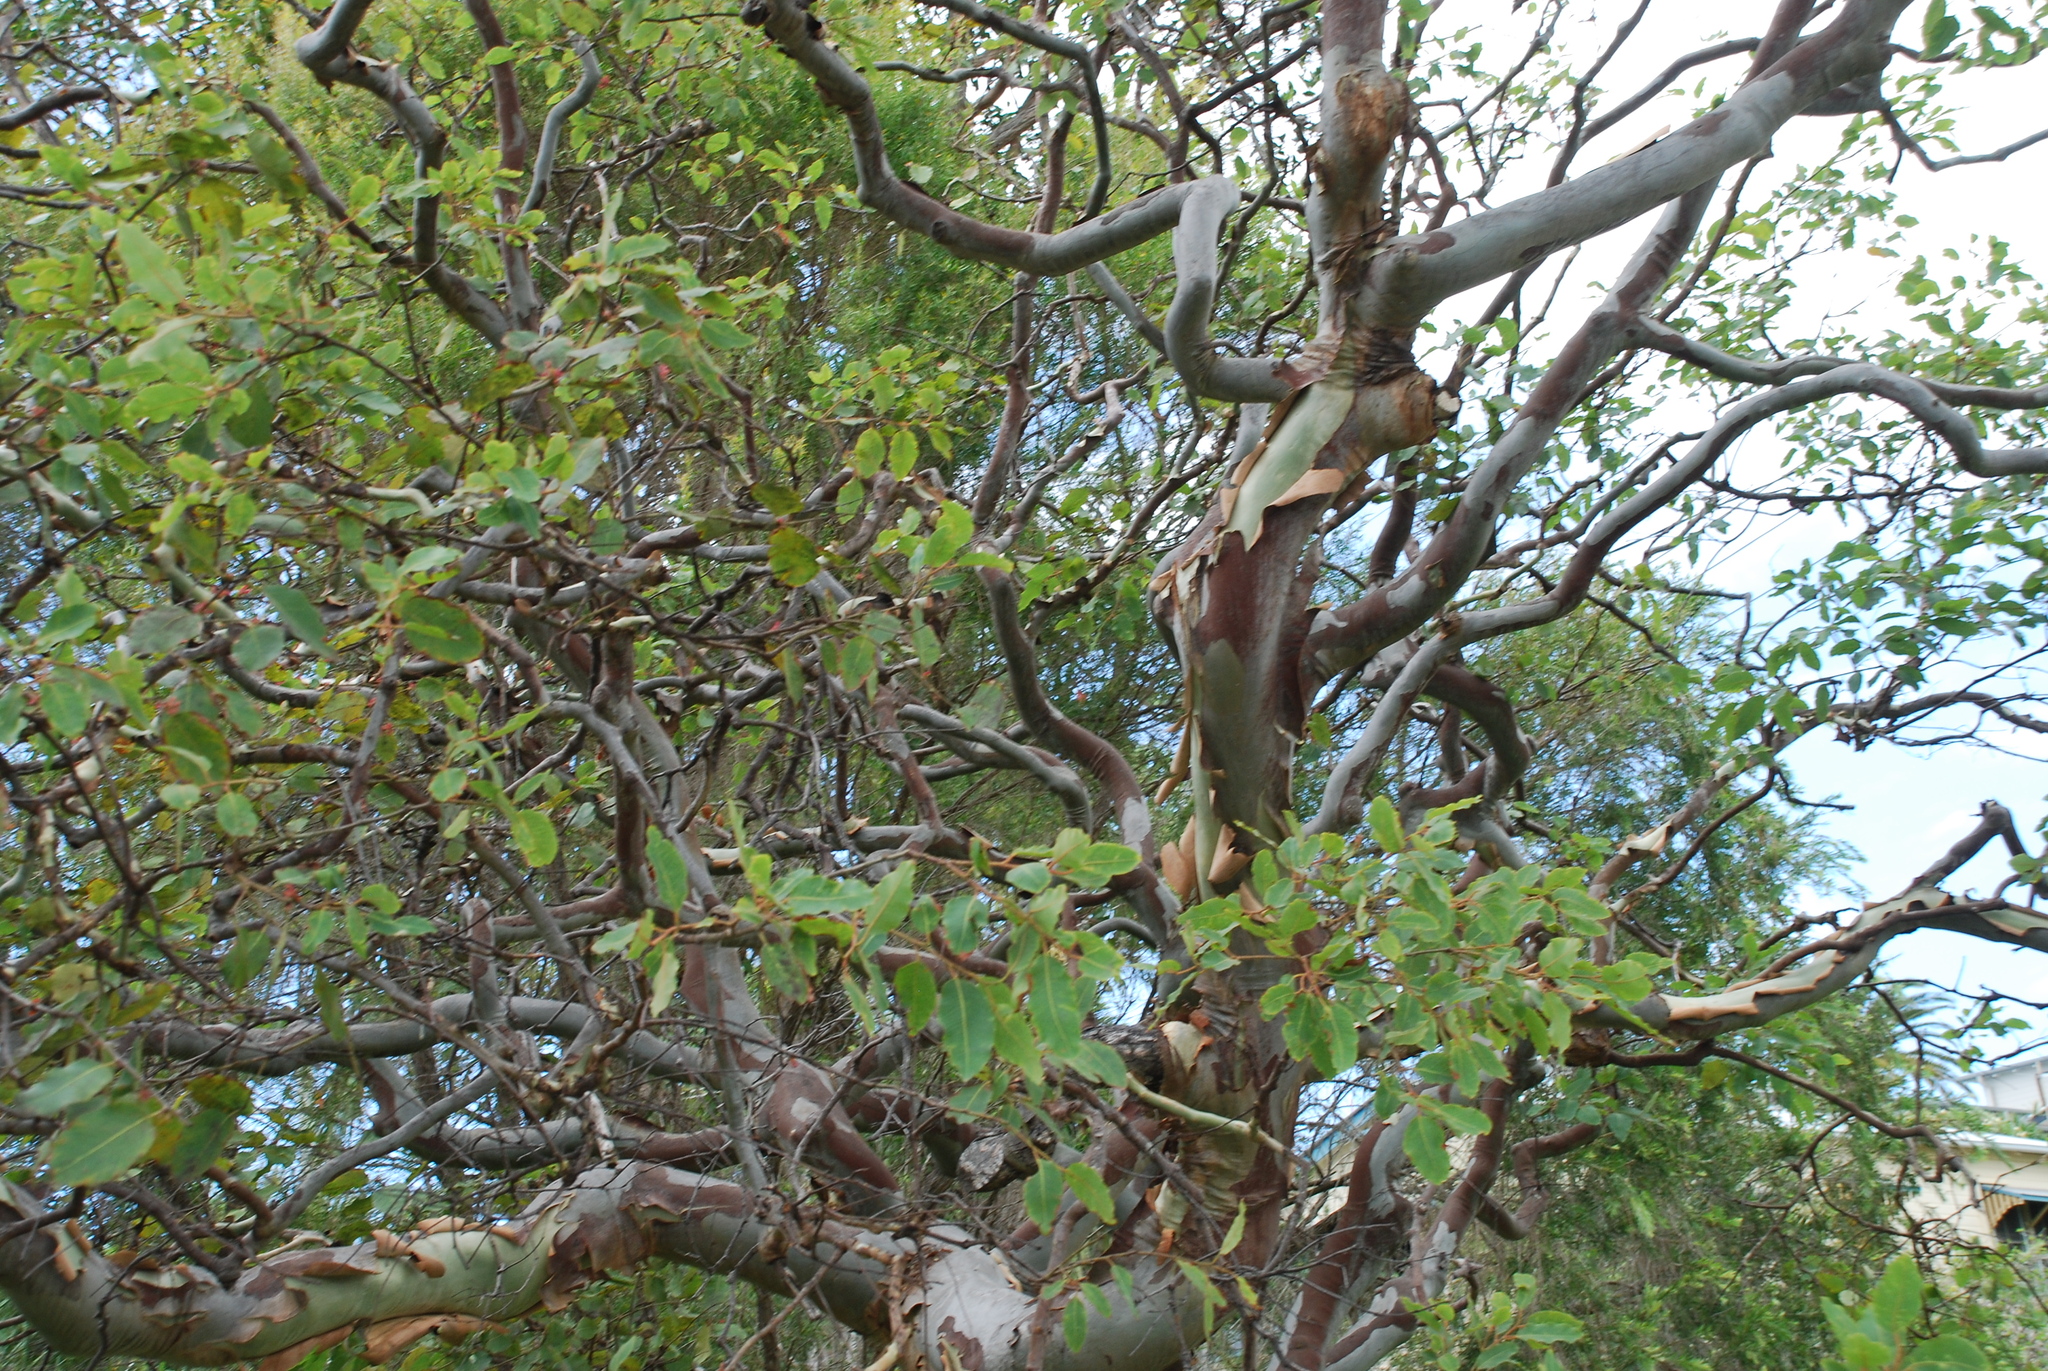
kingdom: Plantae
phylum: Tracheophyta
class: Magnoliopsida
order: Myrtales
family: Myrtaceae
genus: Corymbia
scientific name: Corymbia torelliana
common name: Cadaghi
